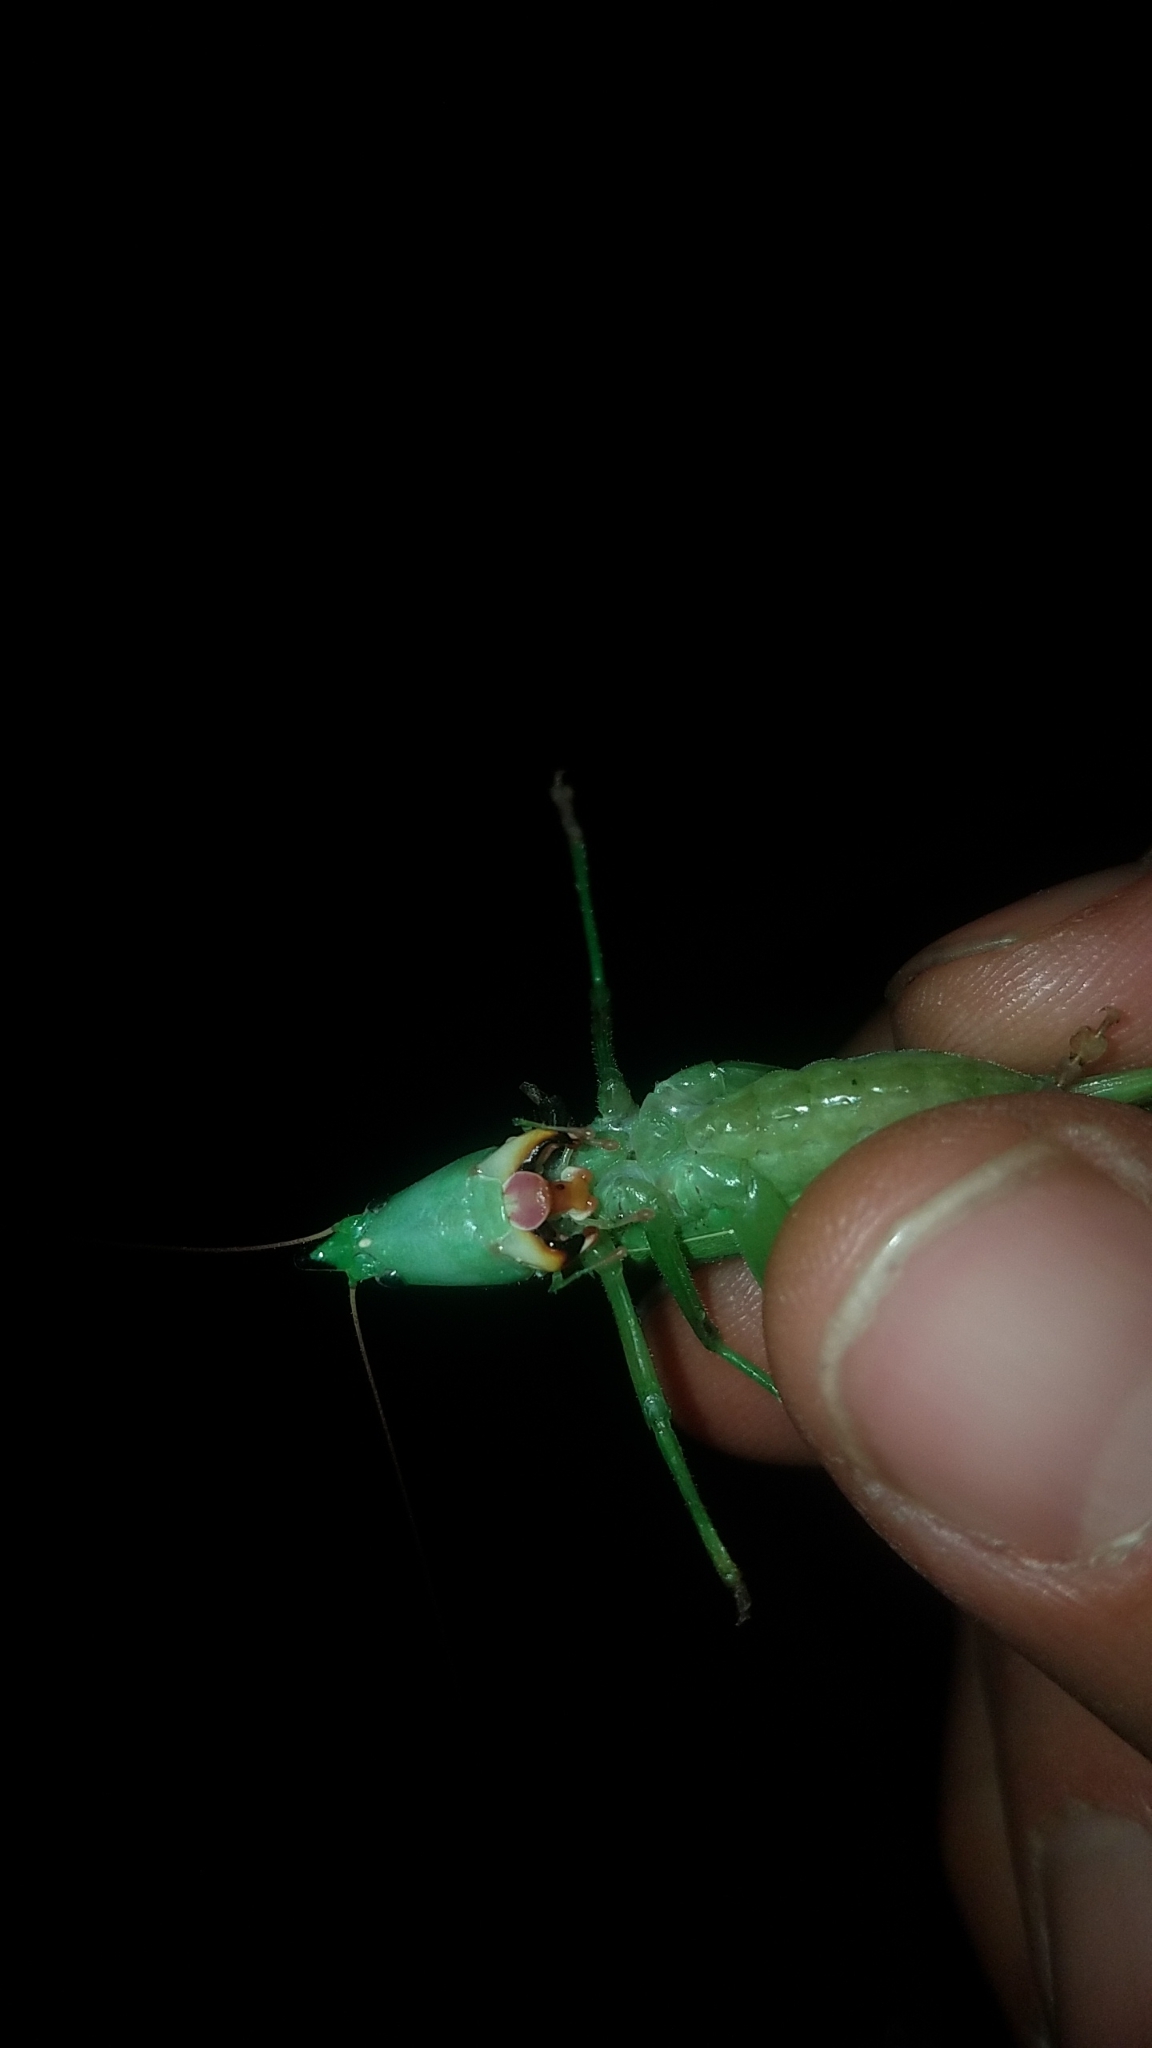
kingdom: Animalia
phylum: Arthropoda
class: Insecta
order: Orthoptera
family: Tettigoniidae
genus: Neoconocephalus
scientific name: Neoconocephalus ensiger
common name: Swordbearer
